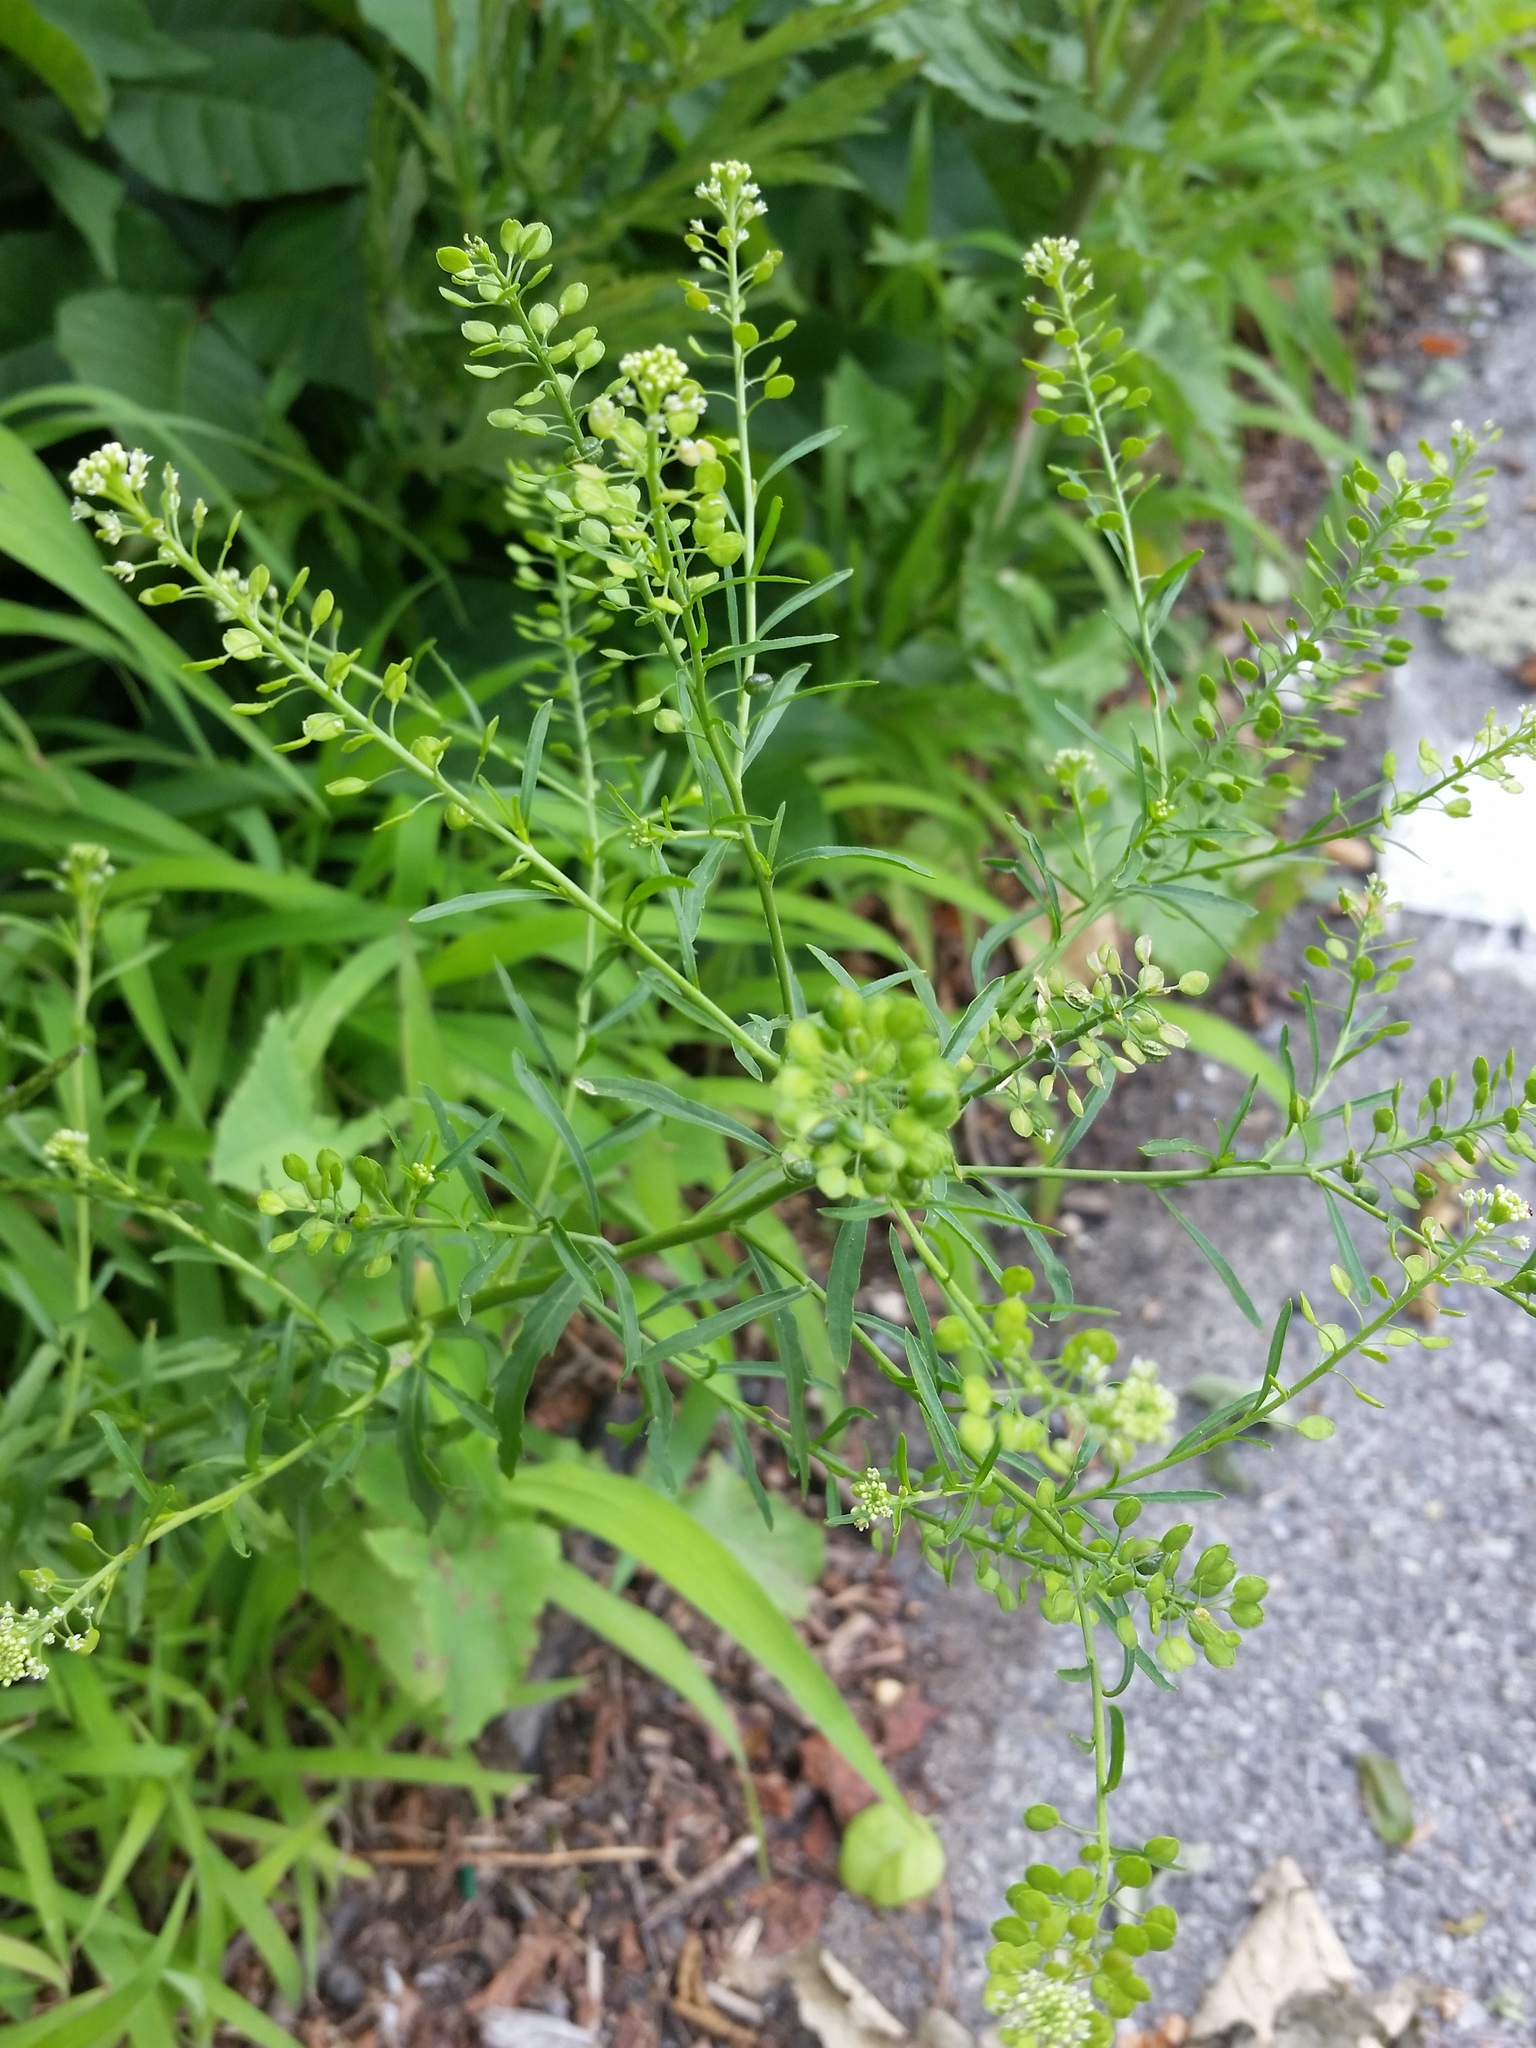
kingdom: Plantae
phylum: Tracheophyta
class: Magnoliopsida
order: Brassicales
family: Brassicaceae
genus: Lepidium
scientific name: Lepidium virginicum
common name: Least pepperwort
